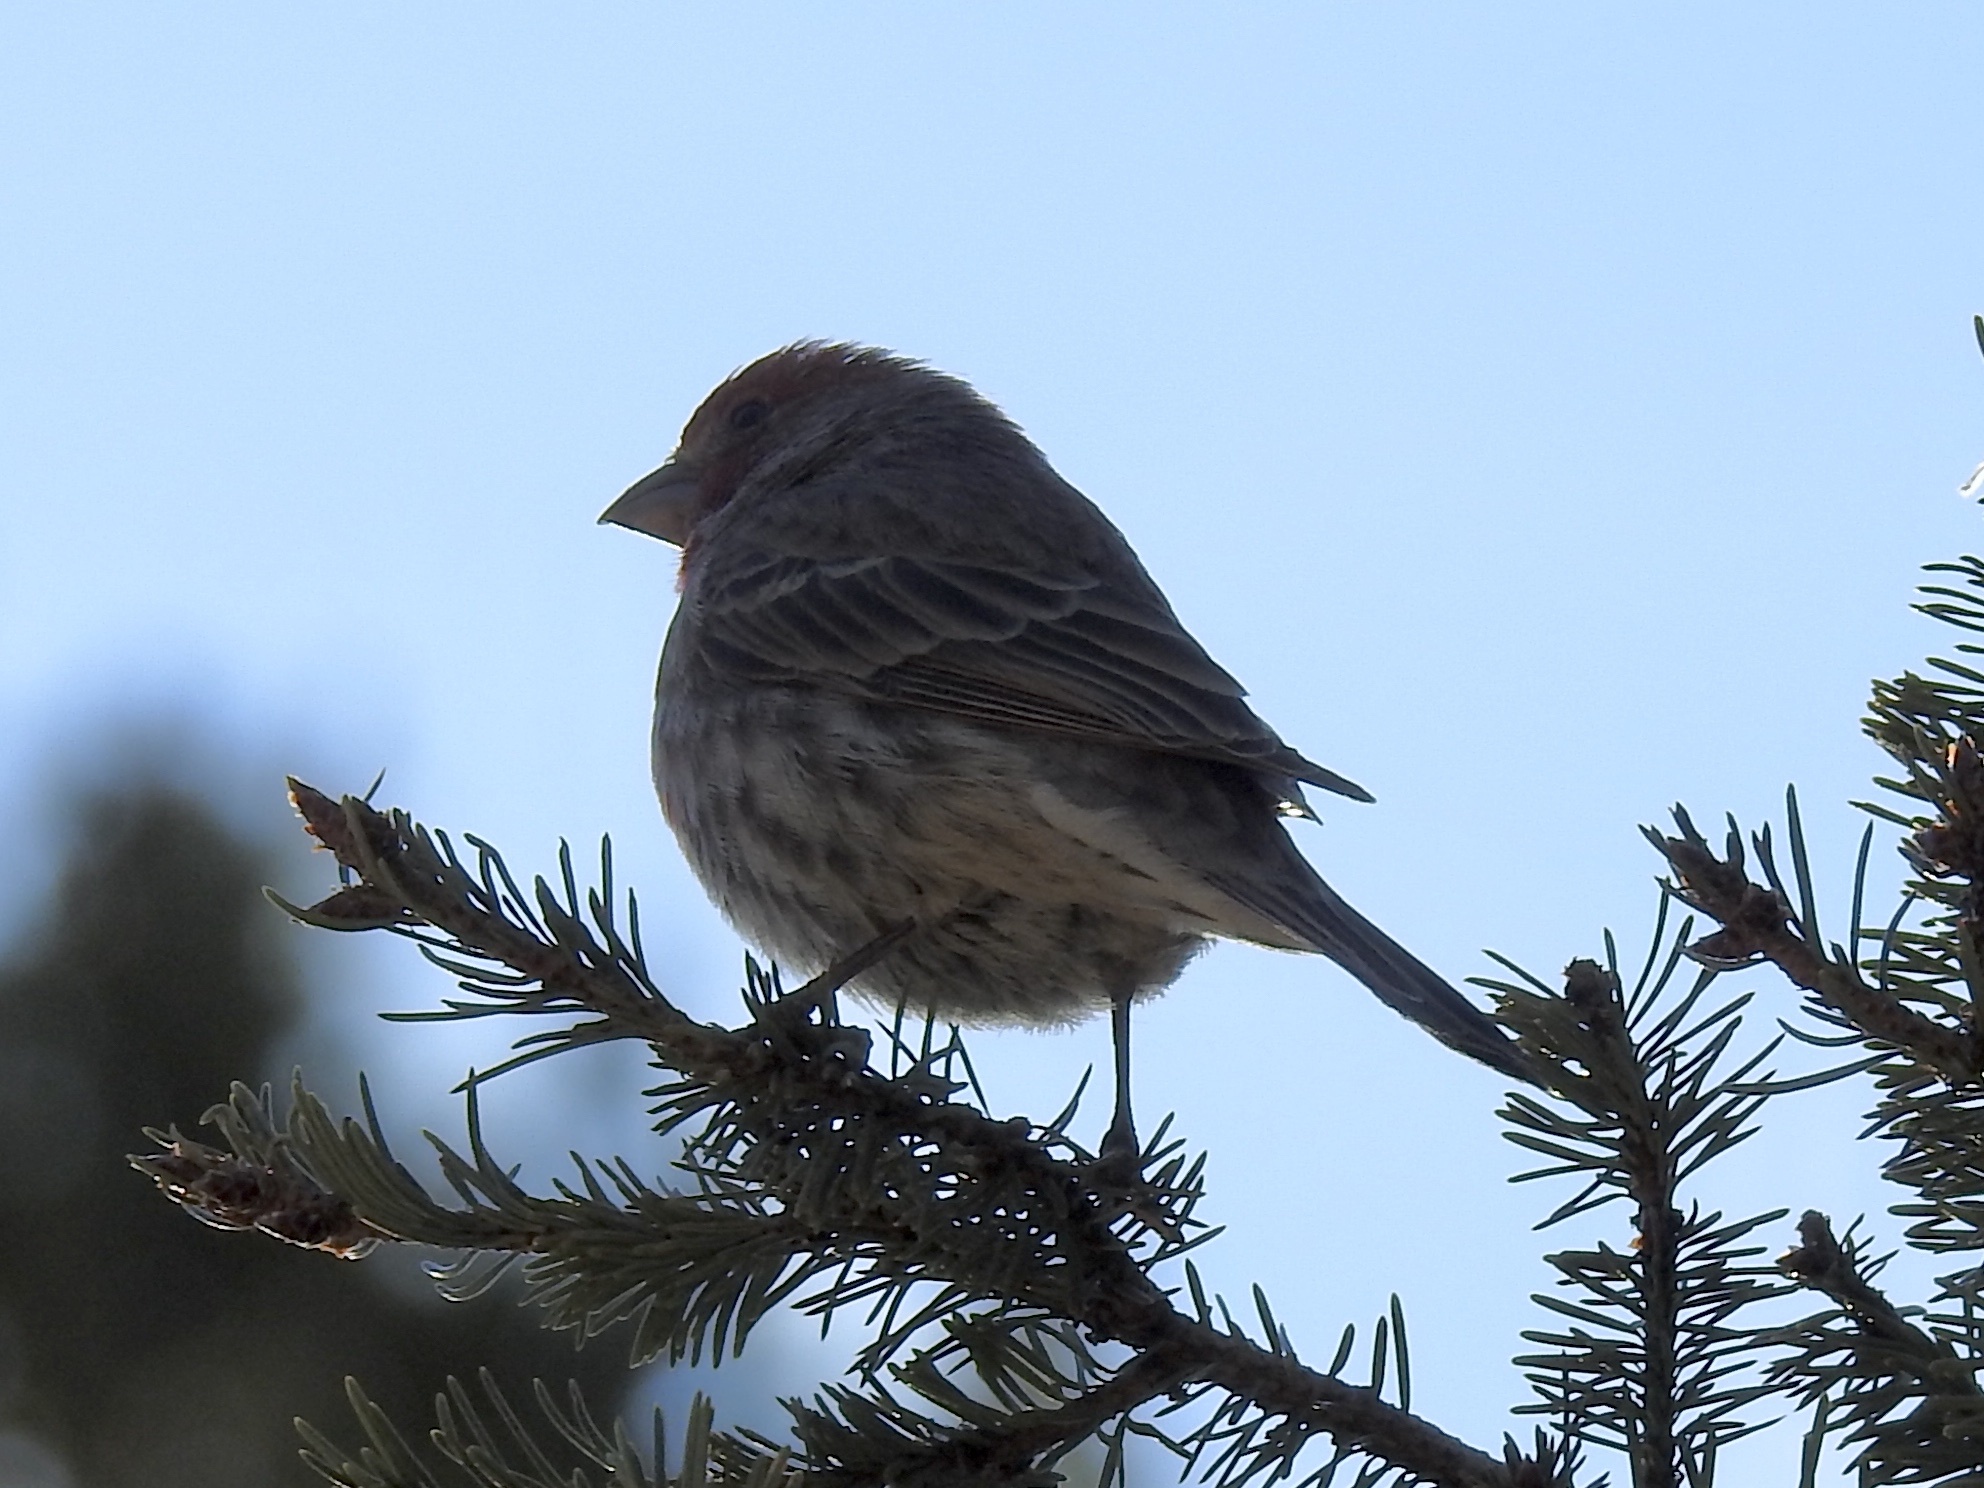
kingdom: Animalia
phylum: Chordata
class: Aves
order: Passeriformes
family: Fringillidae
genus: Haemorhous
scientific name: Haemorhous cassinii
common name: Cassin's finch
